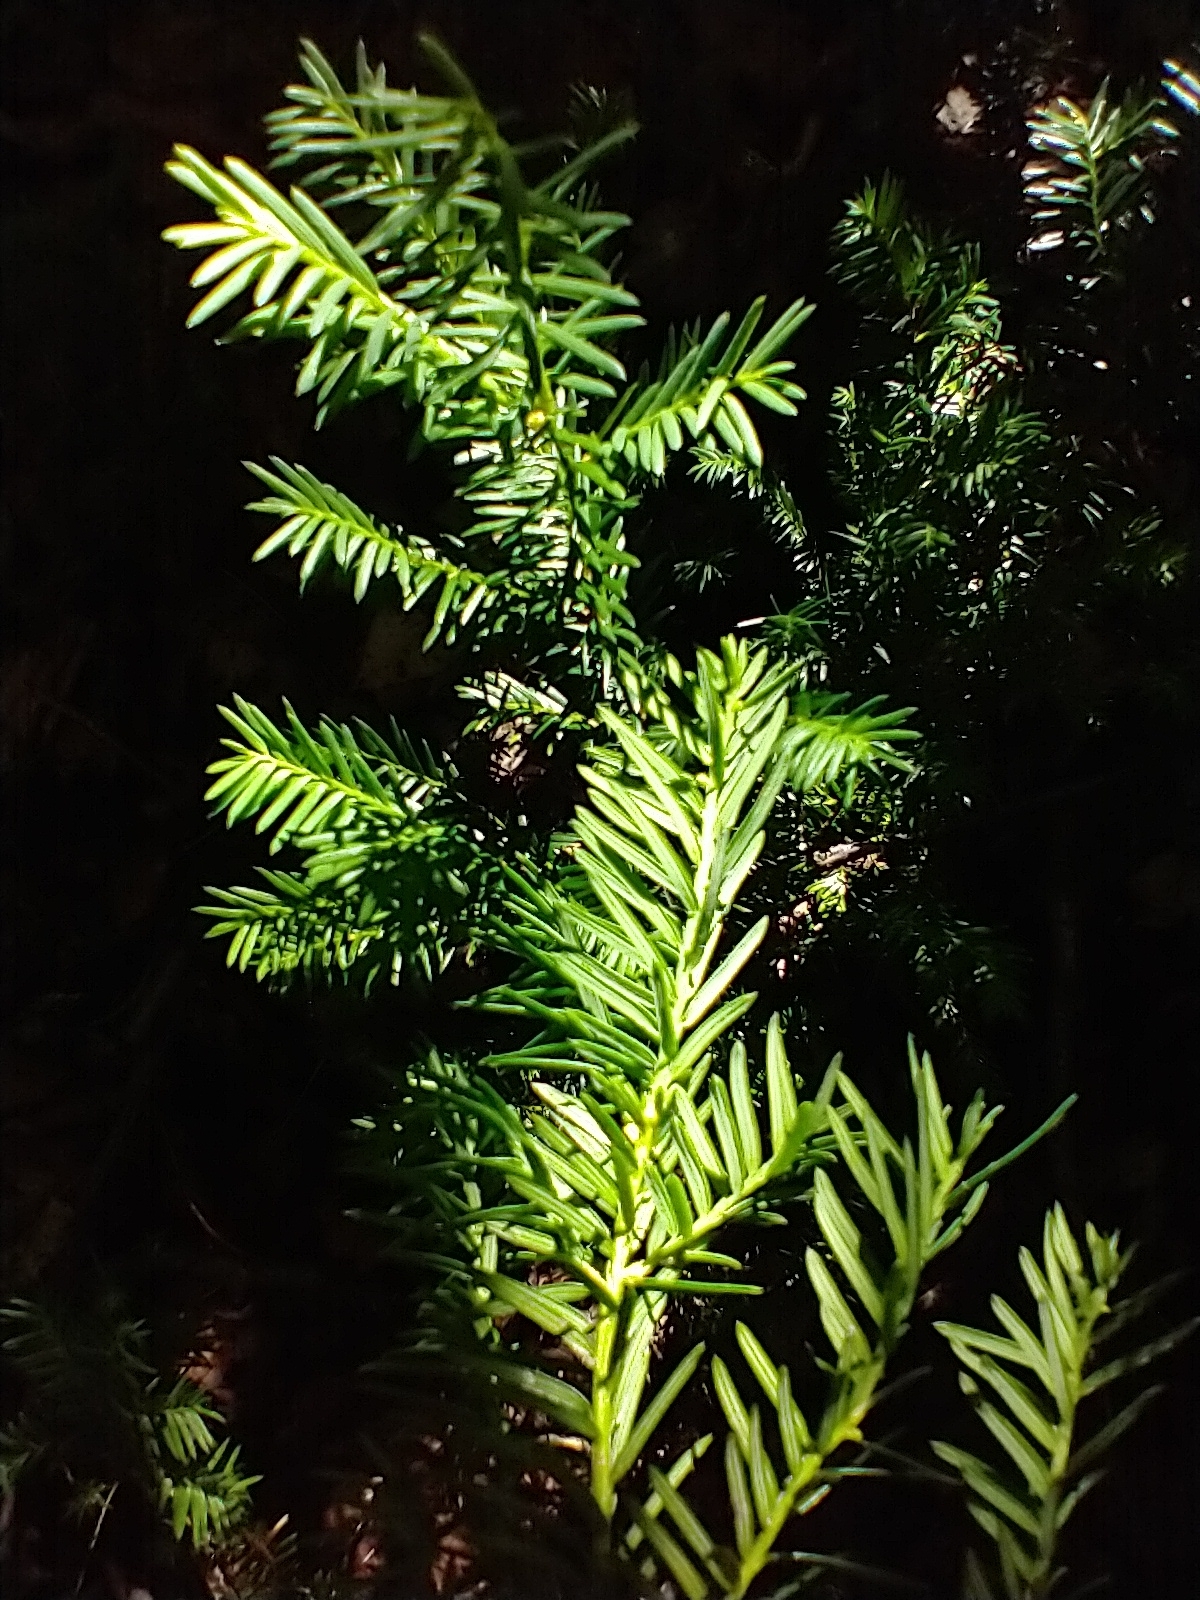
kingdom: Plantae
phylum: Tracheophyta
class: Pinopsida
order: Pinales
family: Taxaceae
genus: Taxus
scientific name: Taxus canadensis
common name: American yew
